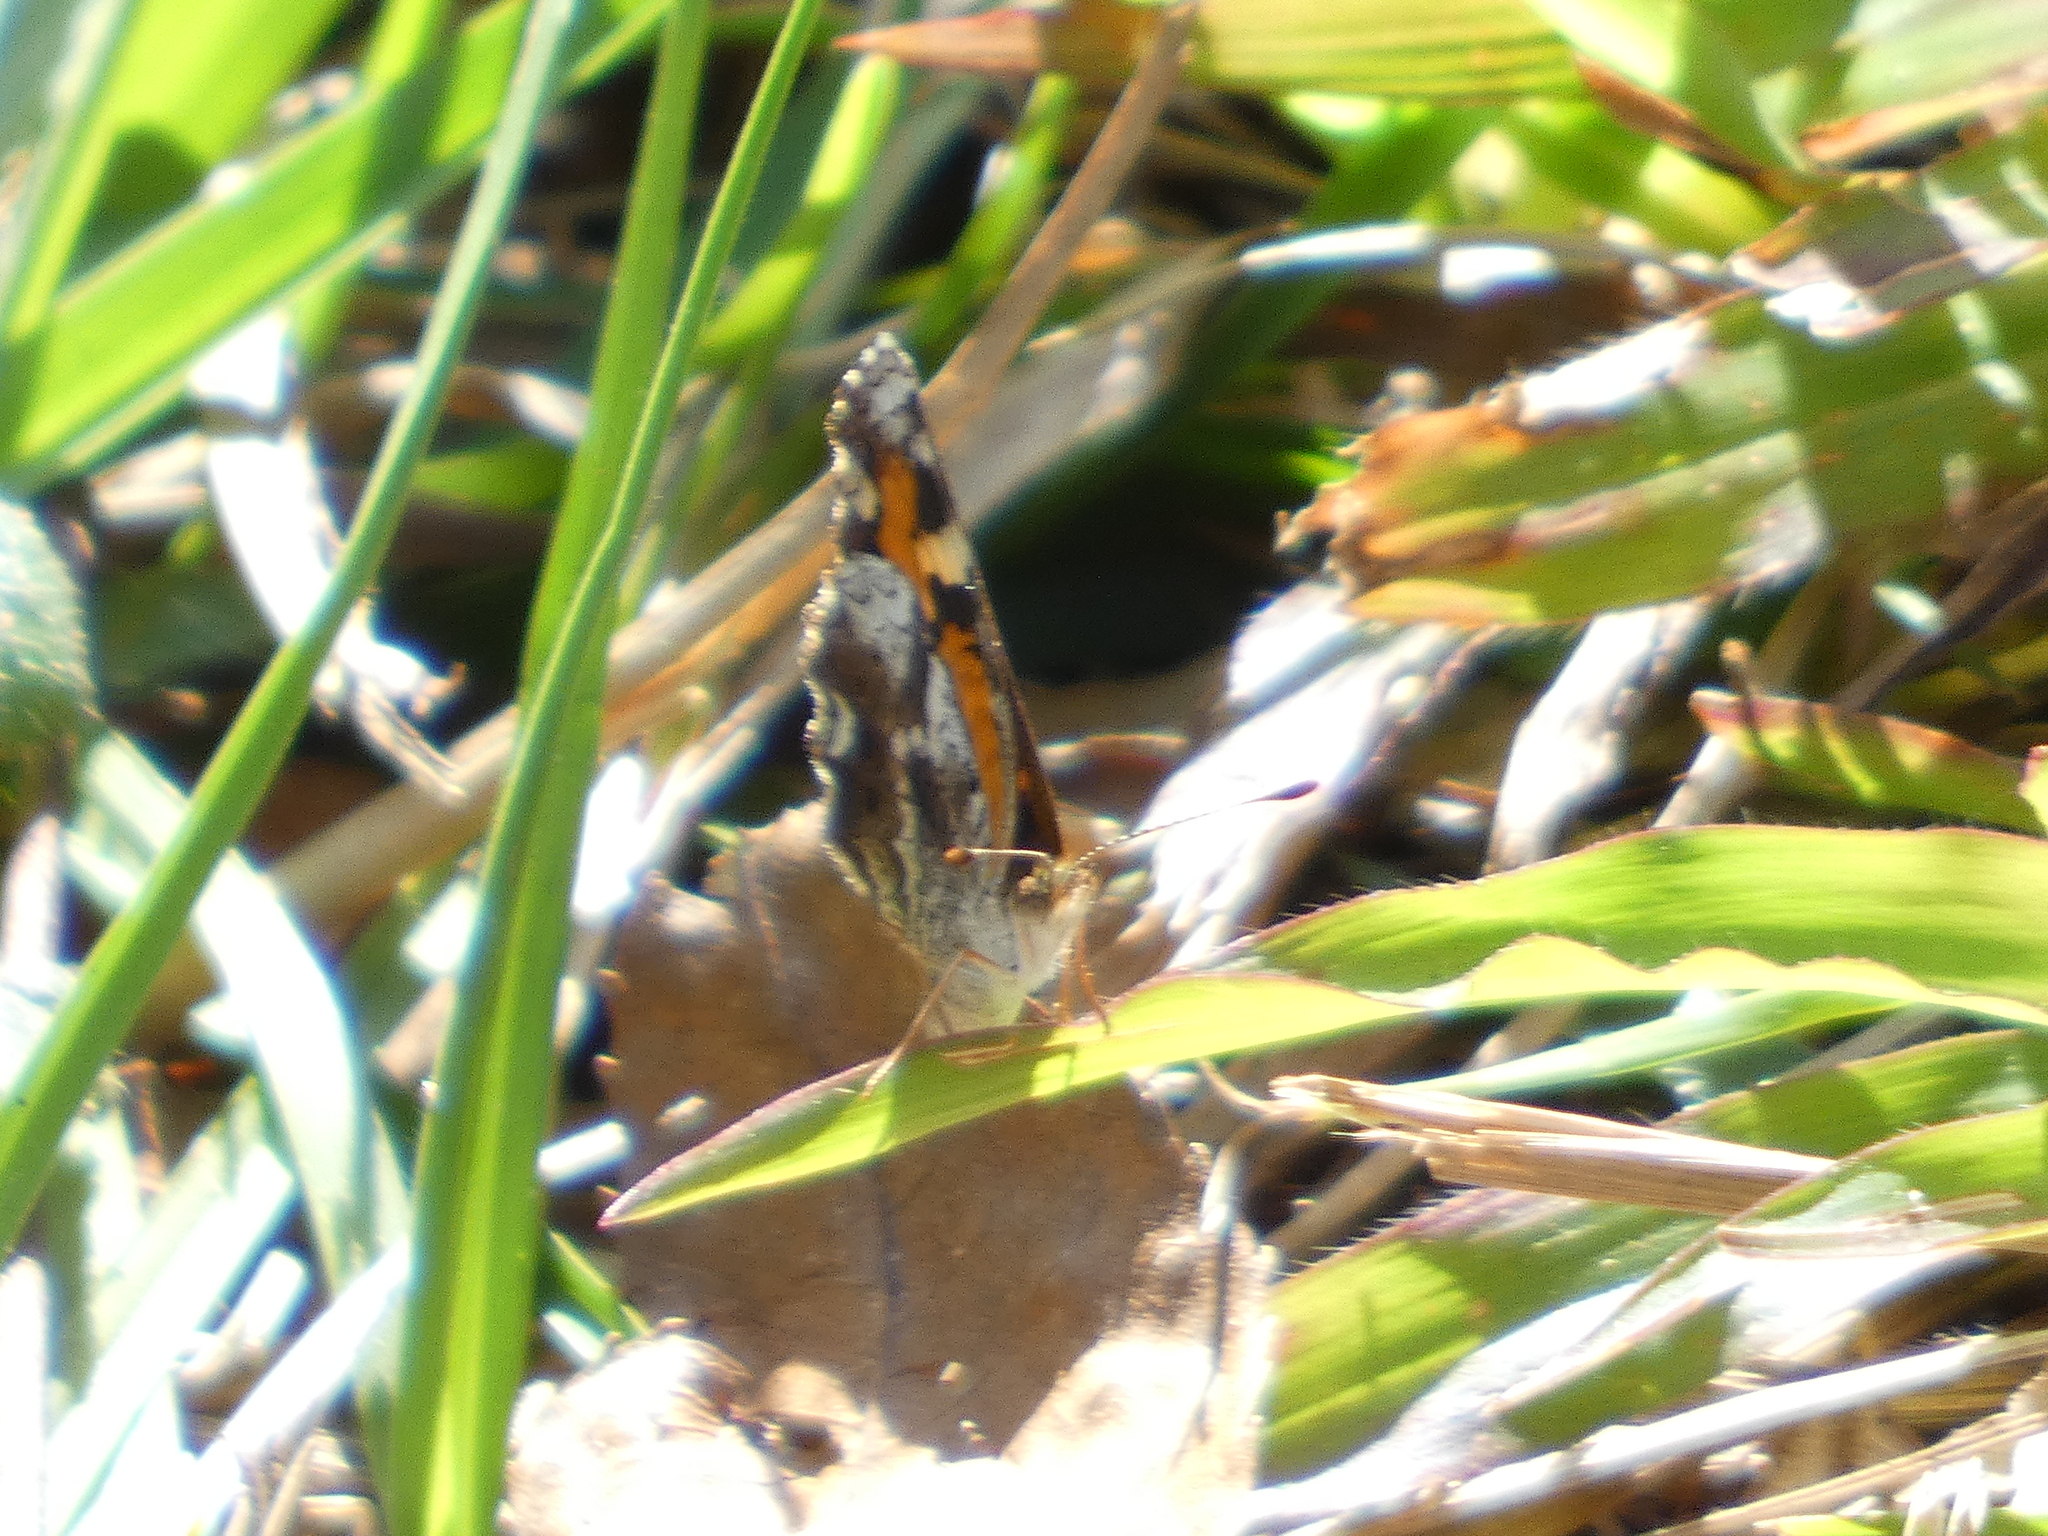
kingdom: Animalia
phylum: Arthropoda
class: Insecta
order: Lepidoptera
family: Nymphalidae
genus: Phyciodes
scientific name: Phyciodes phaon
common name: Phaon crescent
